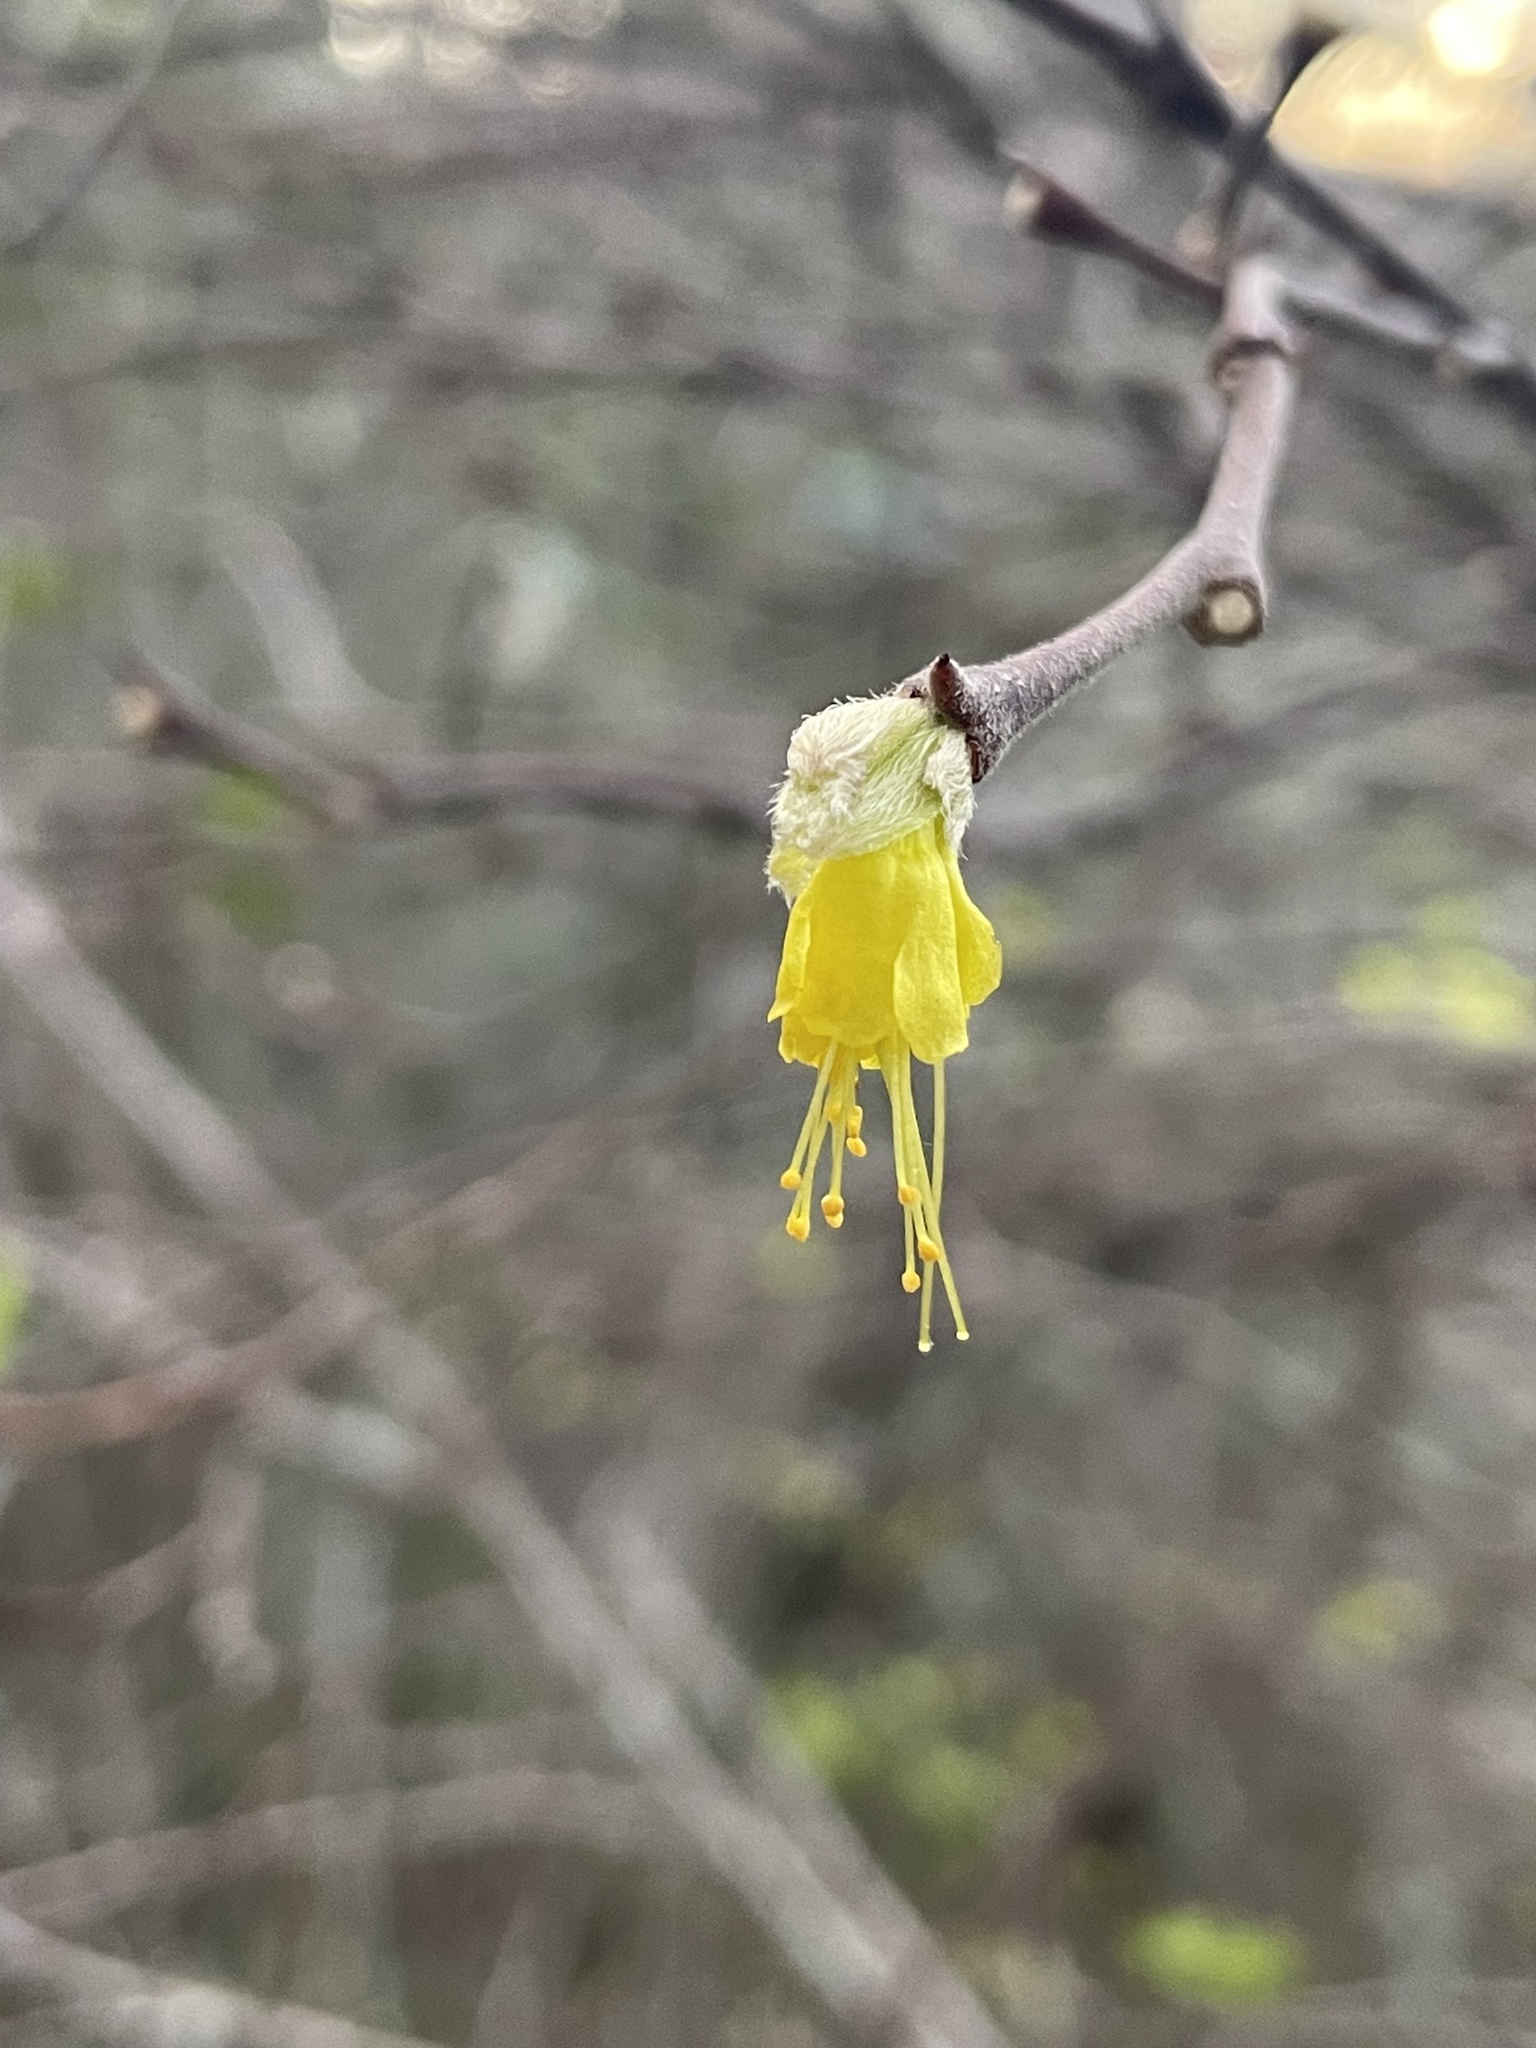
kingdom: Plantae
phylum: Tracheophyta
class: Magnoliopsida
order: Malvales
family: Thymelaeaceae
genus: Dirca
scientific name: Dirca occidentalis
